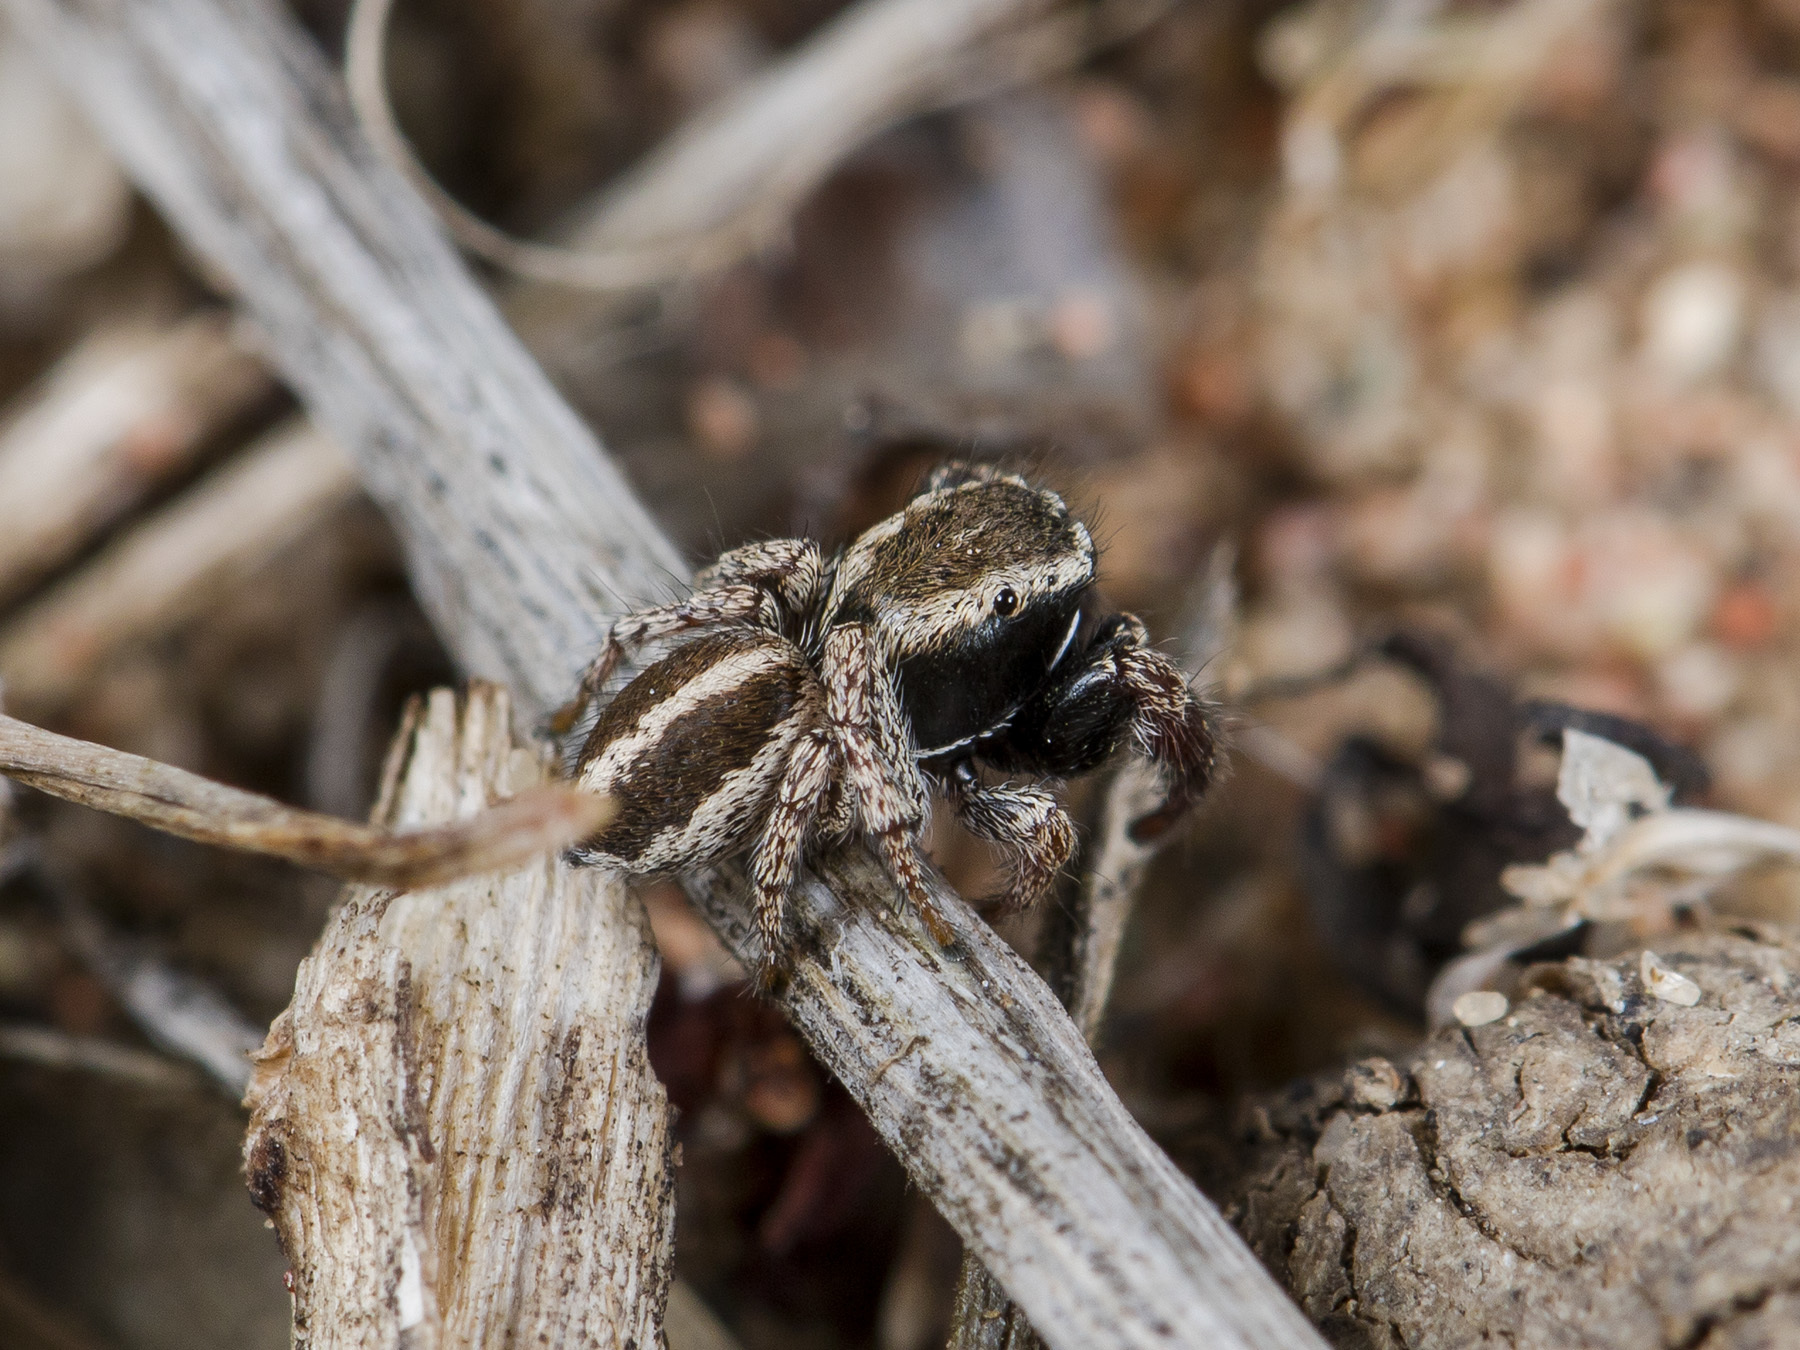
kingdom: Animalia
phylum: Arthropoda
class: Arachnida
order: Araneae
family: Salticidae
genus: Pellenes
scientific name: Pellenes epularis
